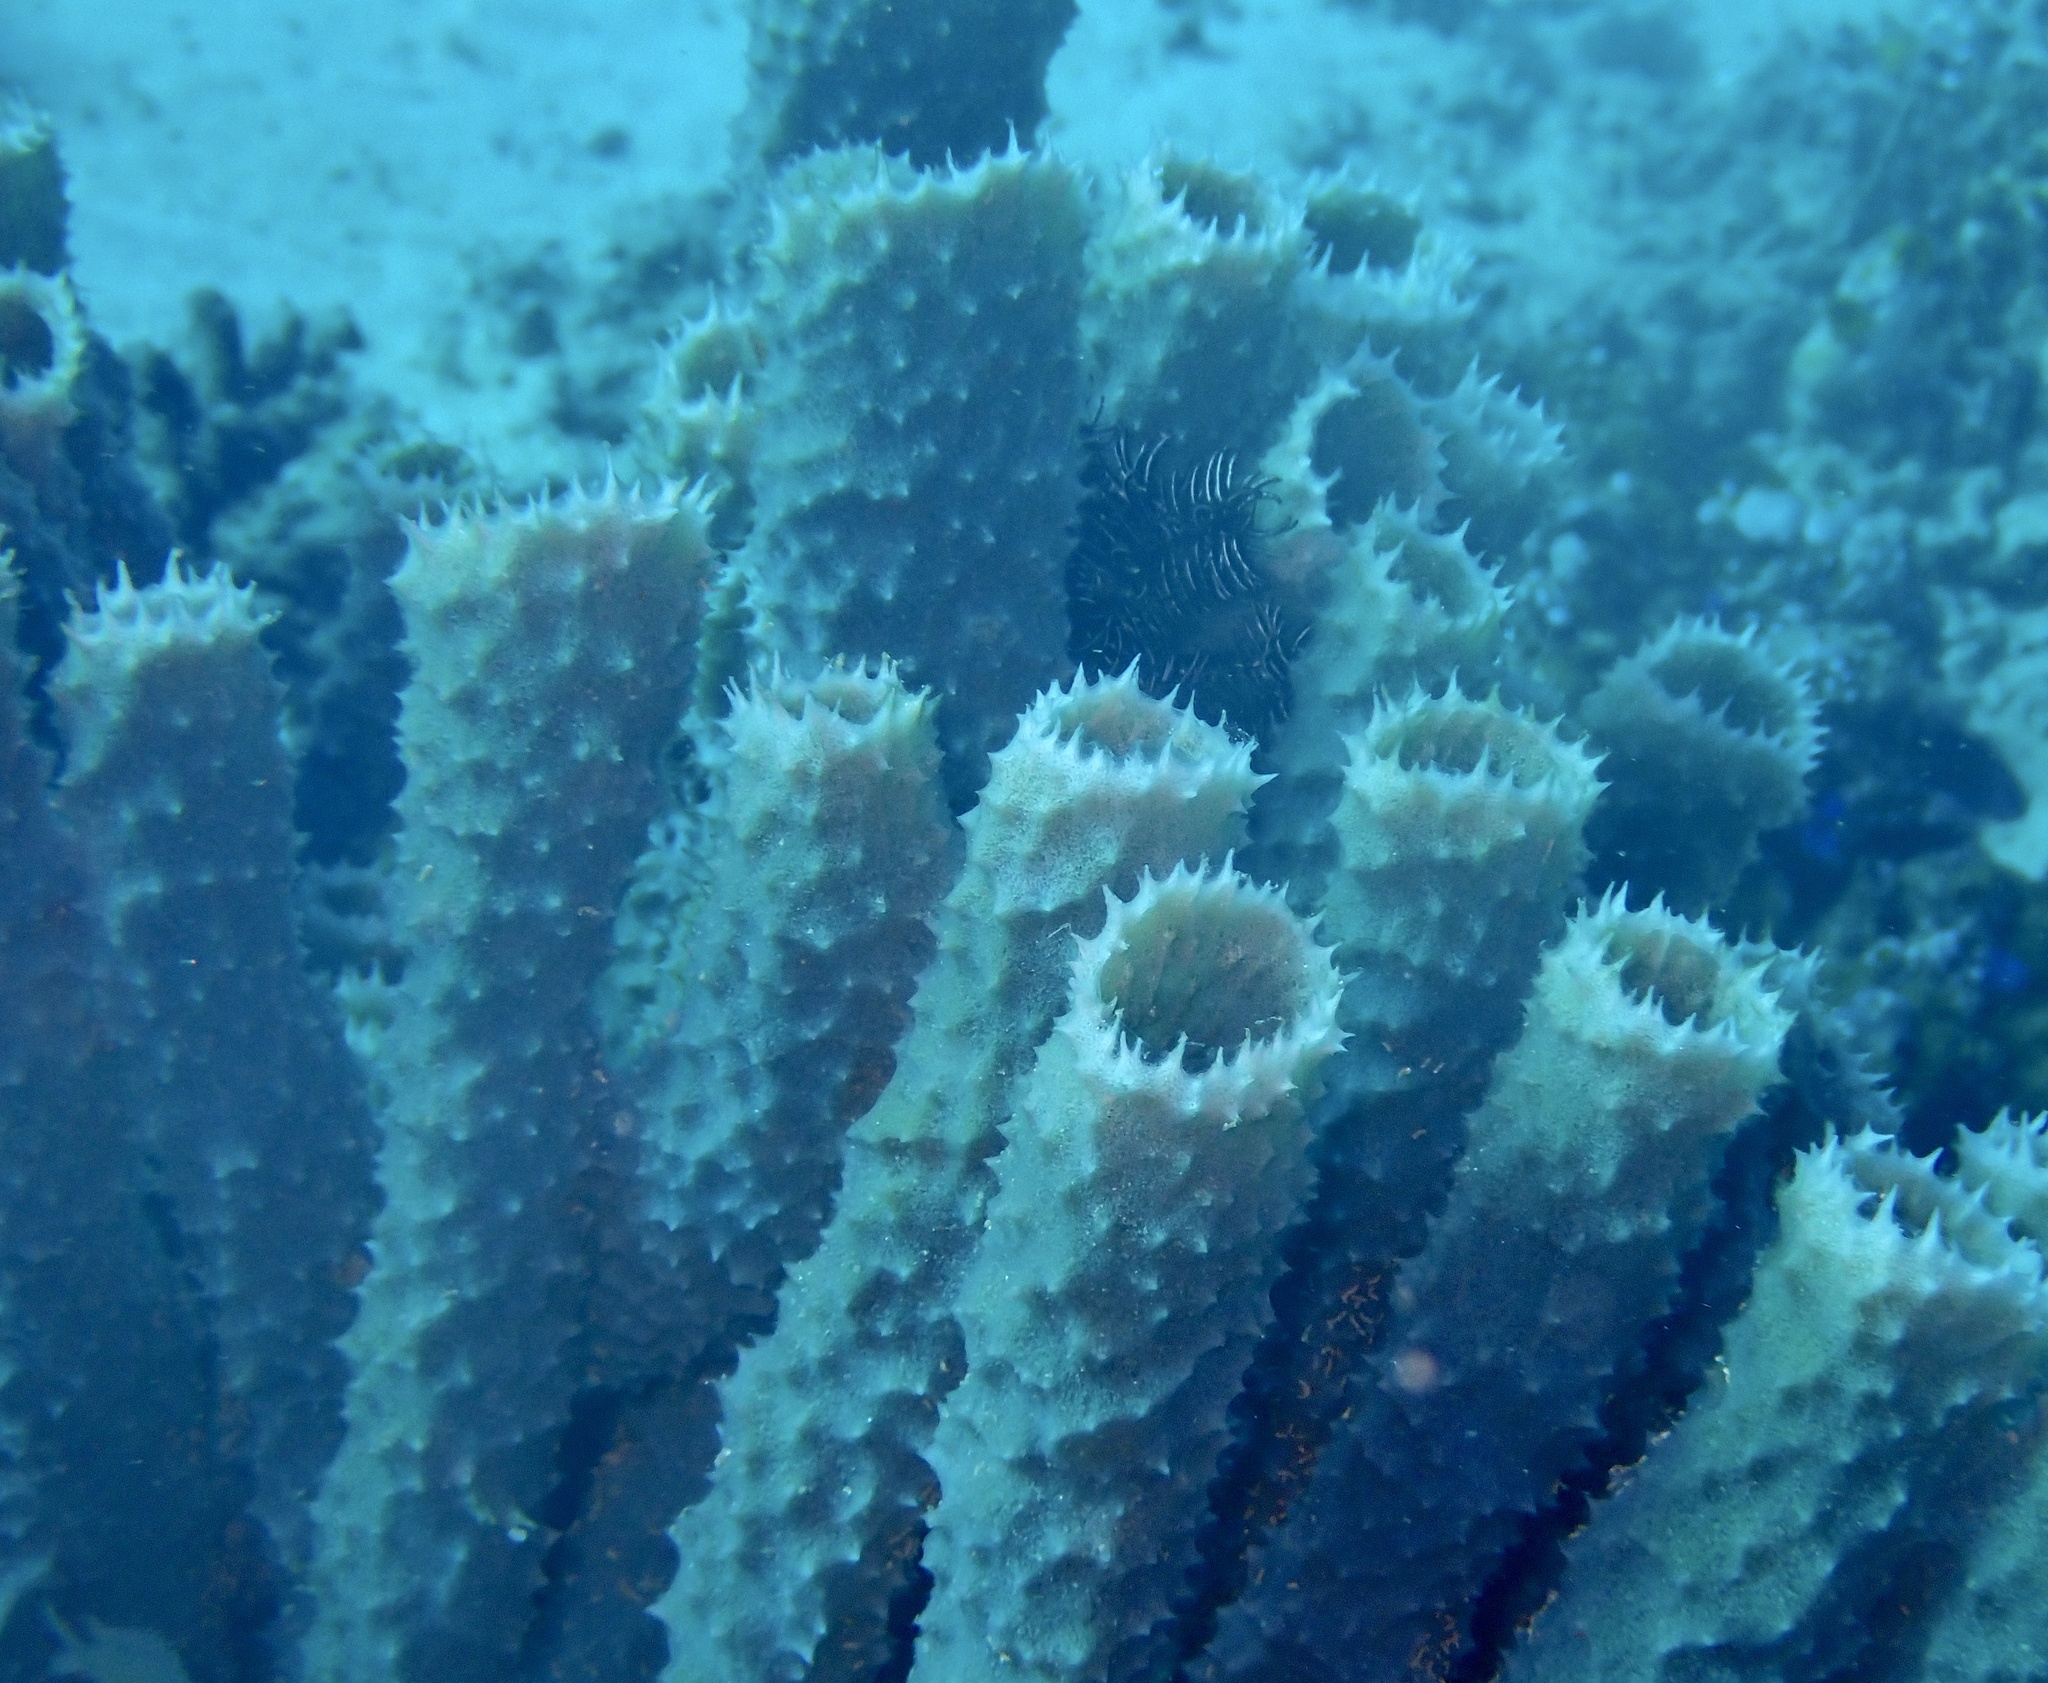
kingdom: Animalia
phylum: Porifera
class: Demospongiae
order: Haplosclerida
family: Callyspongiidae
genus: Callyspongia
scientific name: Callyspongia aerizusa
